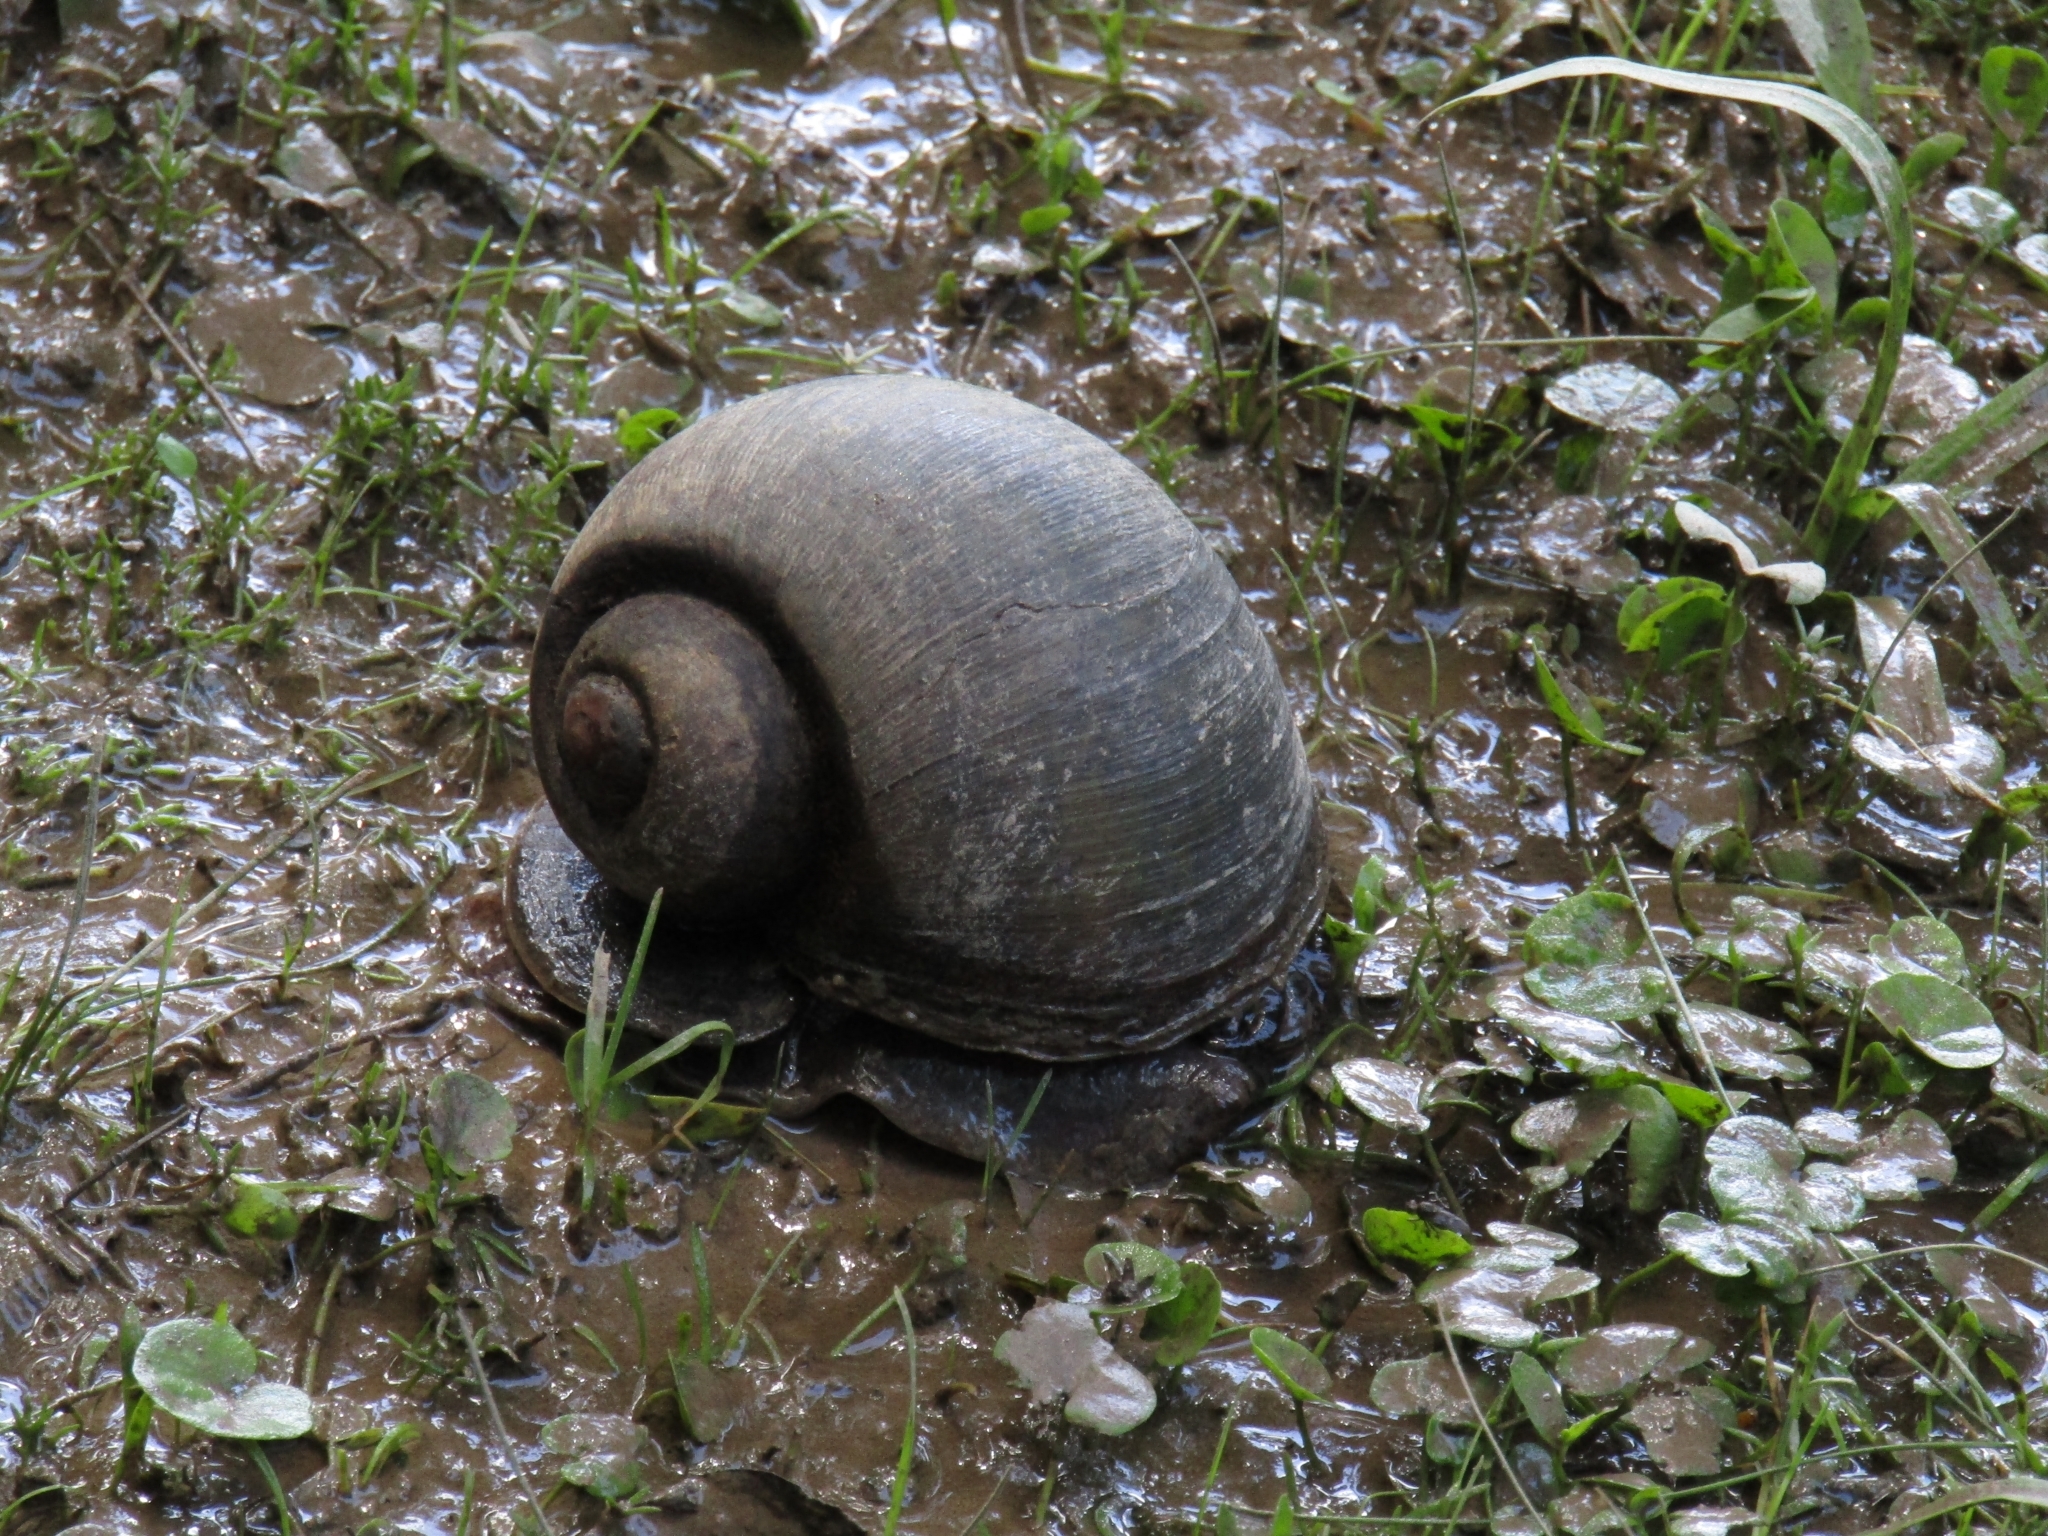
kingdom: Animalia
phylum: Mollusca
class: Gastropoda
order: Architaenioglossa
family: Ampullariidae
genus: Pomacea
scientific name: Pomacea canaliculata
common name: Channeled applesnail
